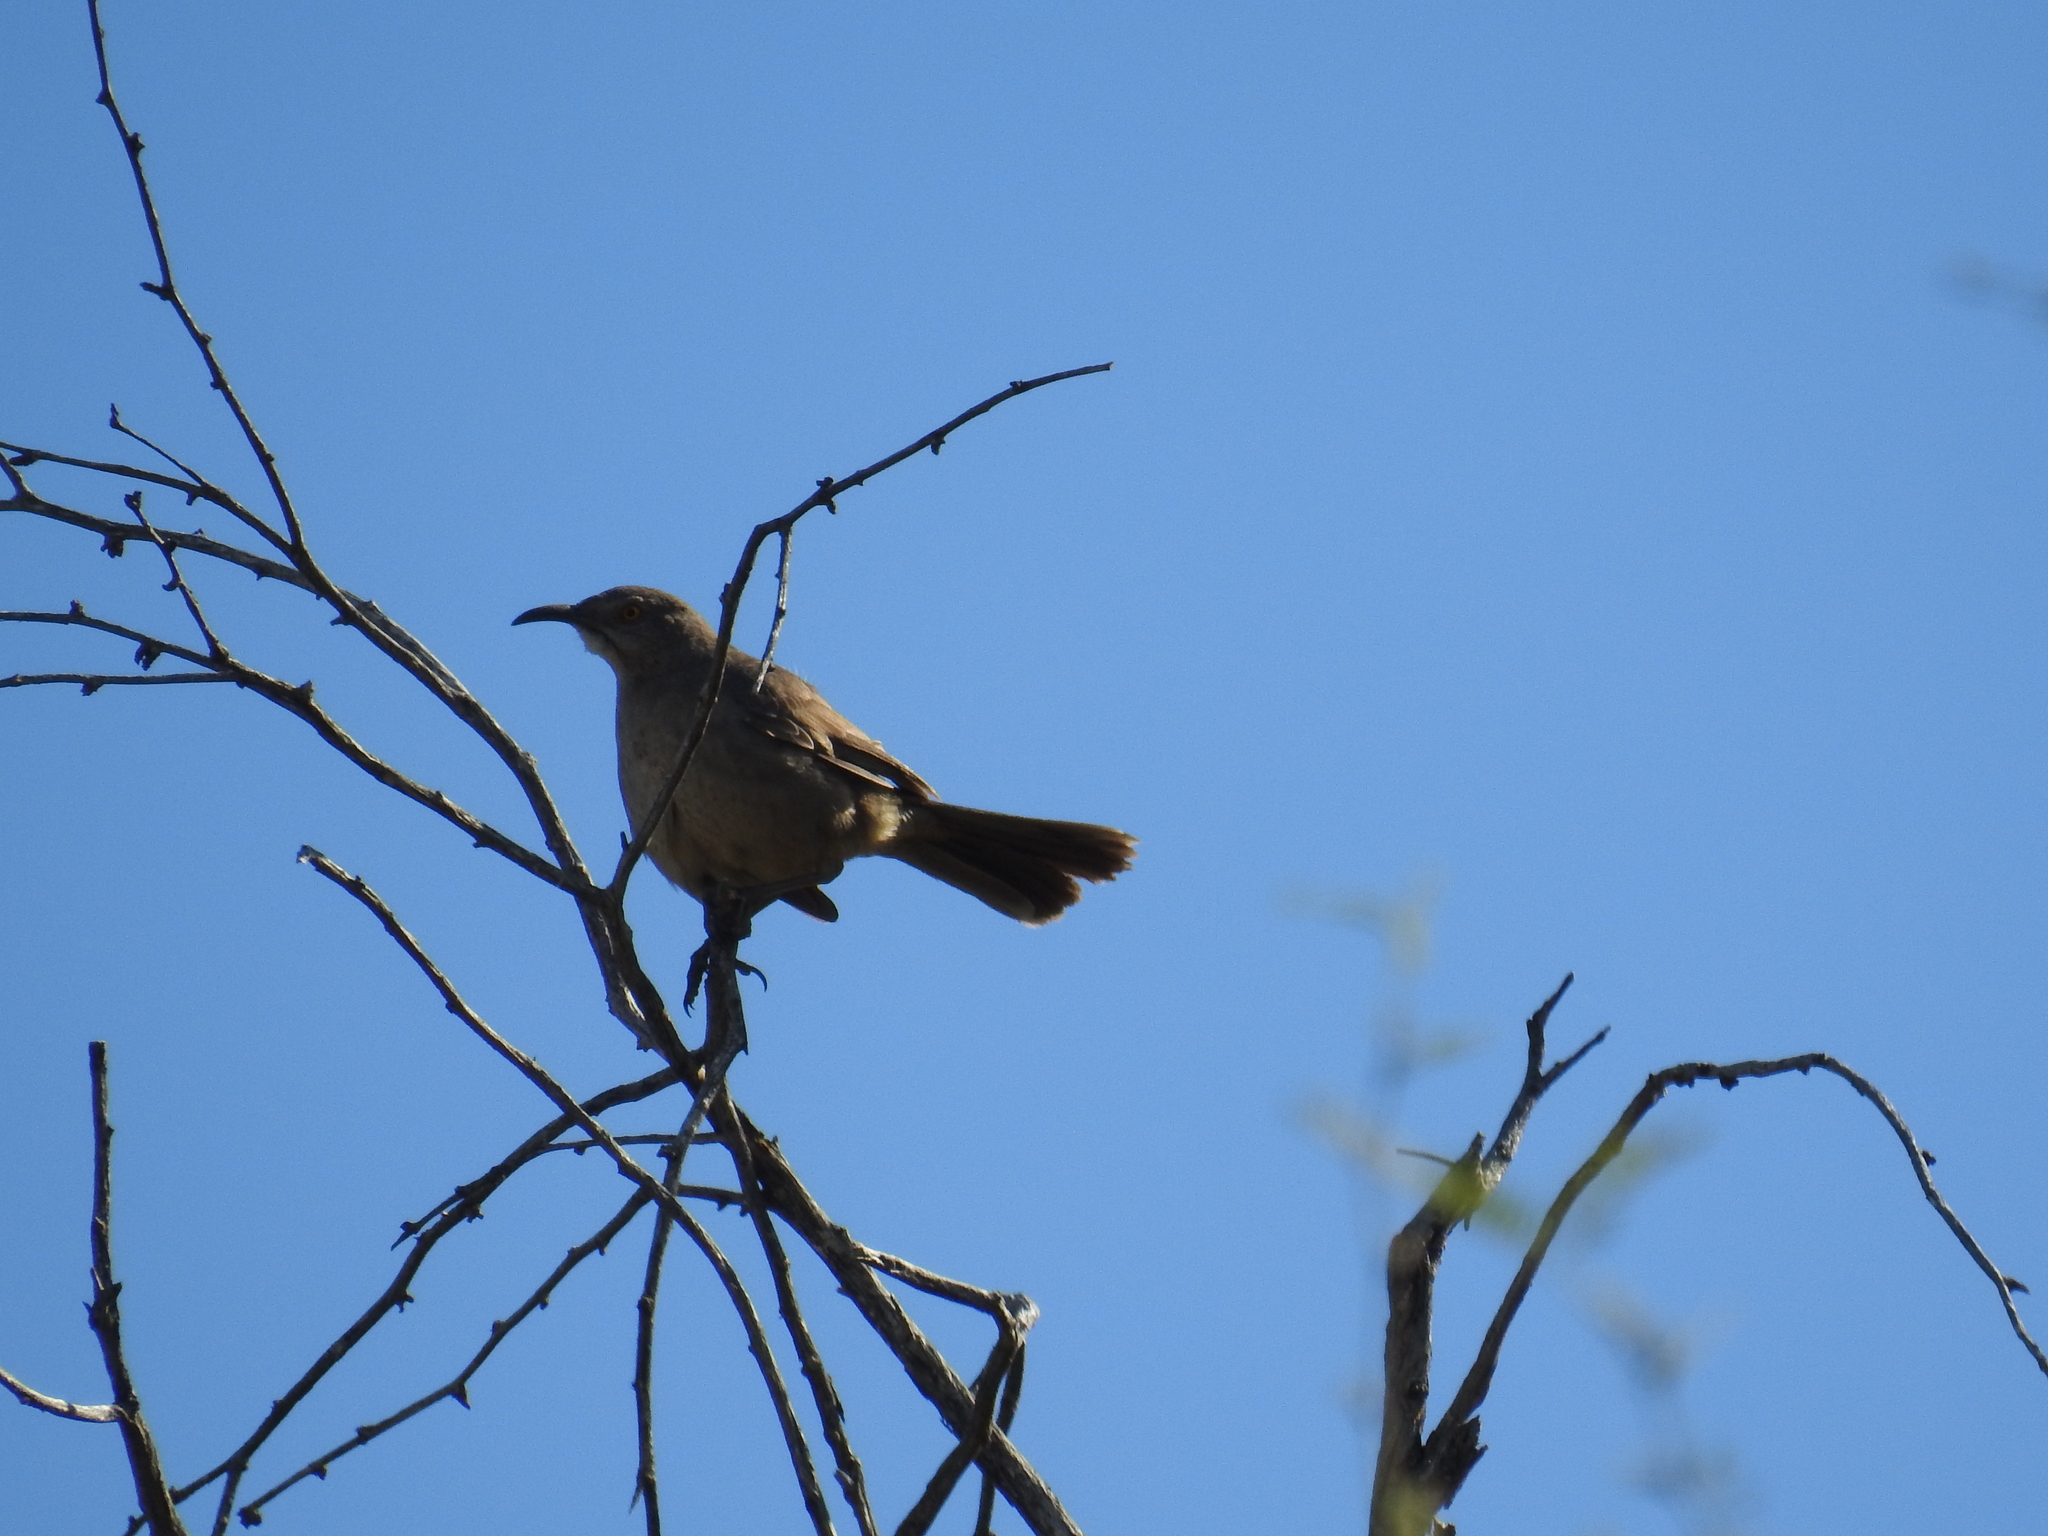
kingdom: Animalia
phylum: Chordata
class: Aves
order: Passeriformes
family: Mimidae
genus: Toxostoma
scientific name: Toxostoma curvirostre
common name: Curve-billed thrasher
